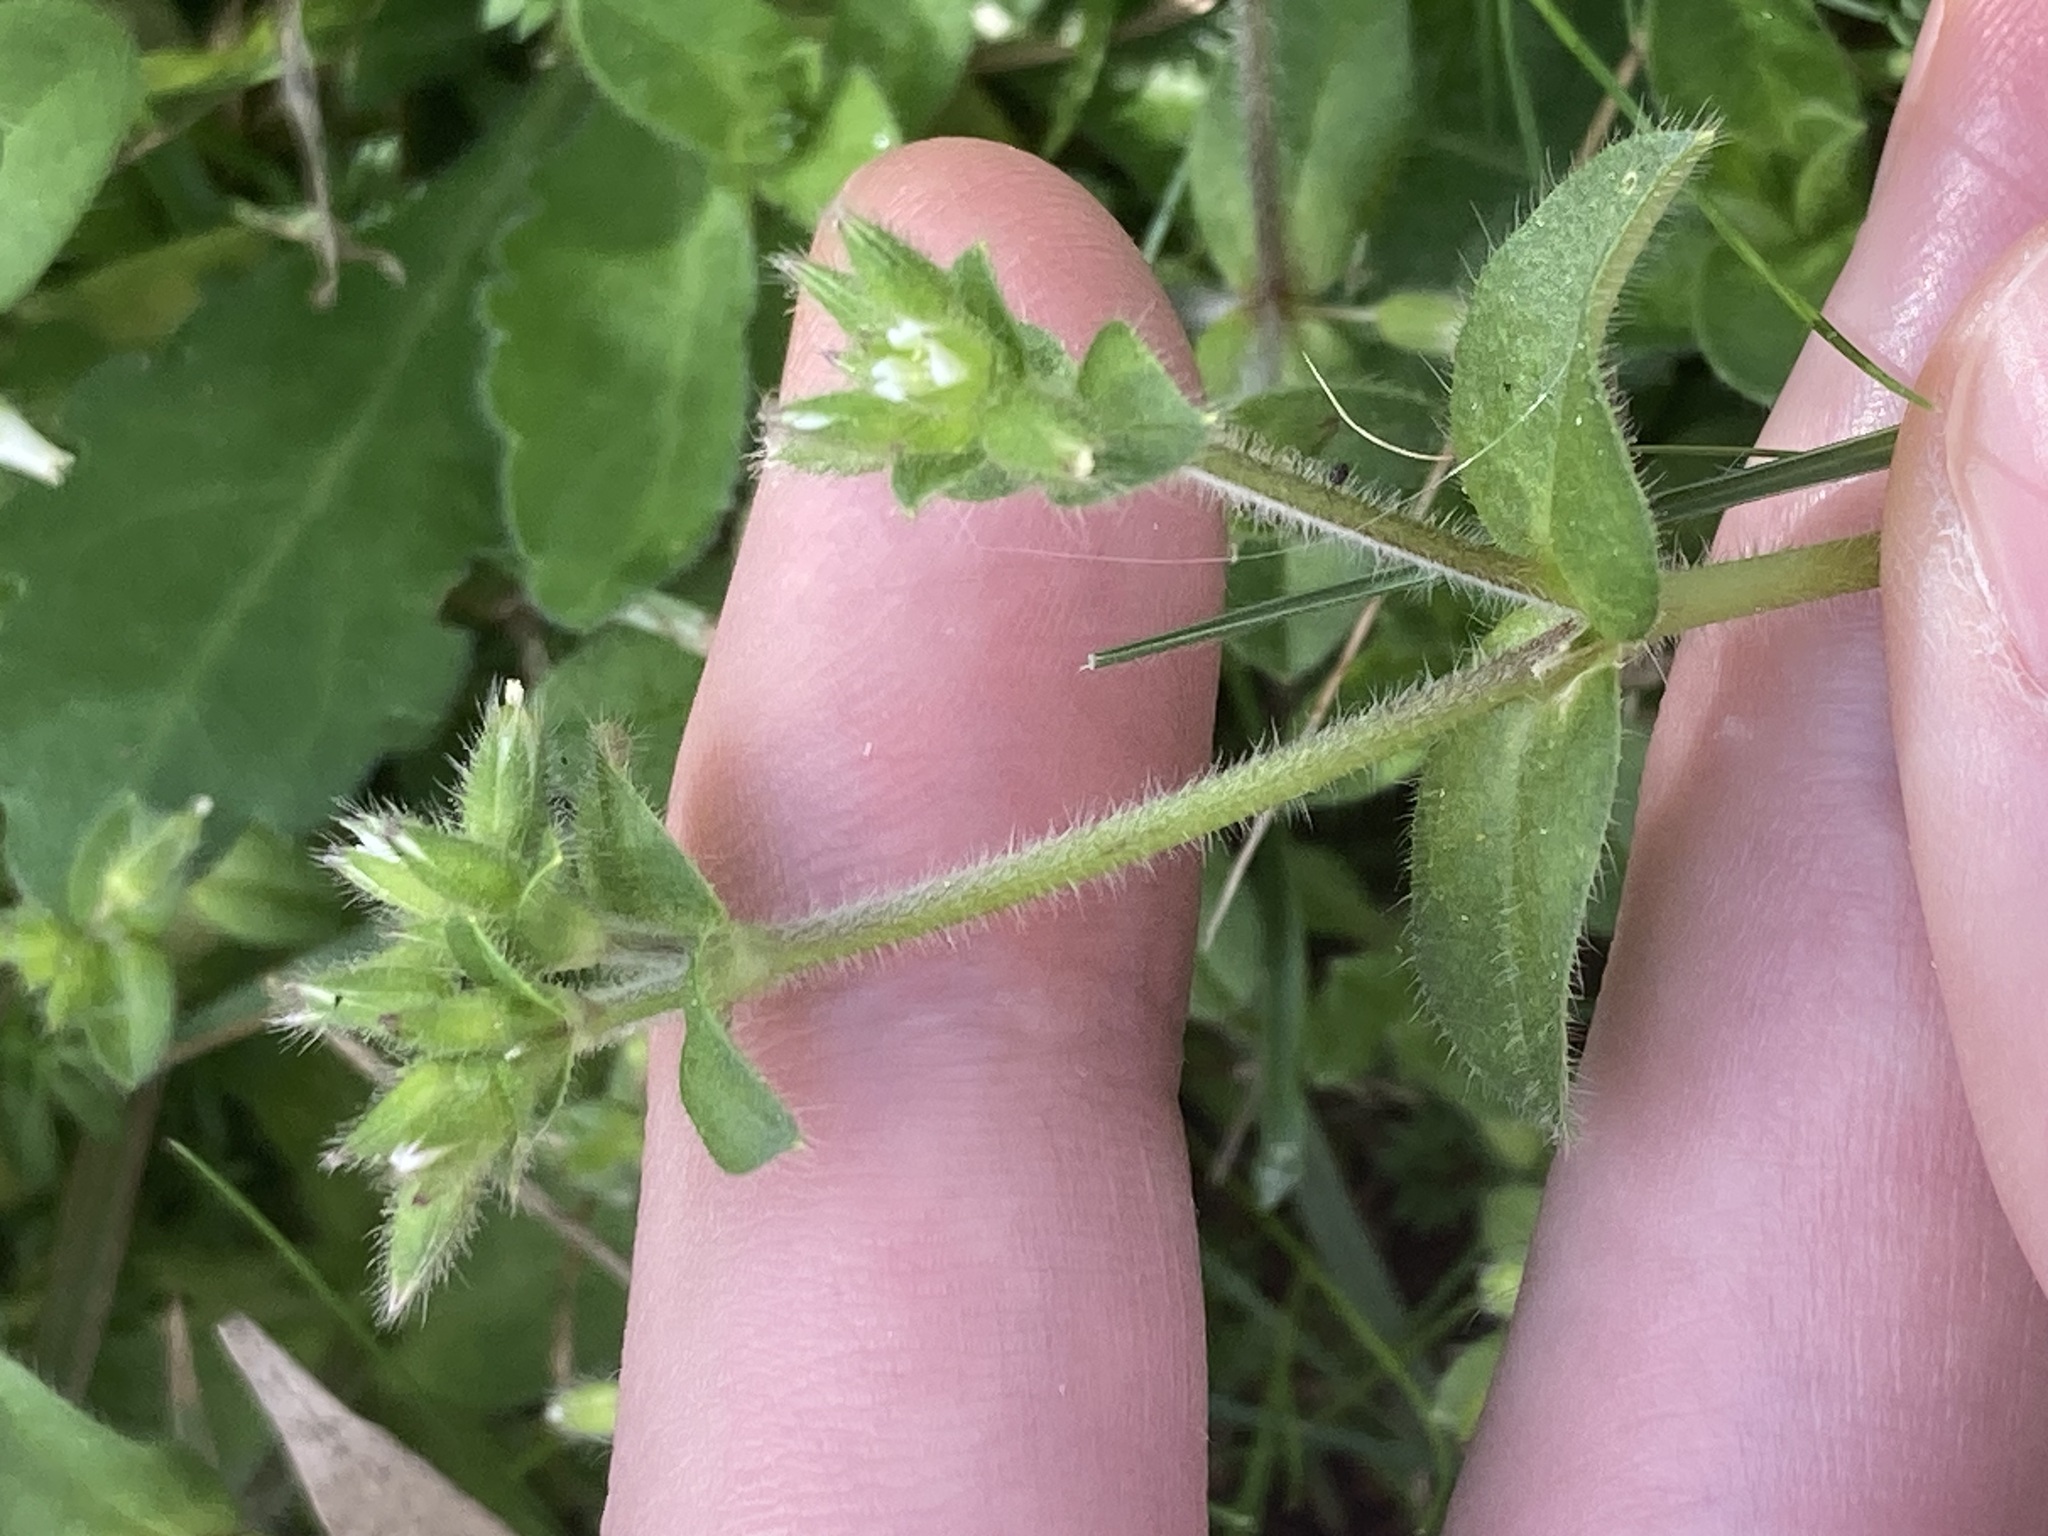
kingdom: Plantae
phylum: Tracheophyta
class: Magnoliopsida
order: Caryophyllales
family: Caryophyllaceae
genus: Cerastium
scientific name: Cerastium glomeratum
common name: Sticky chickweed
